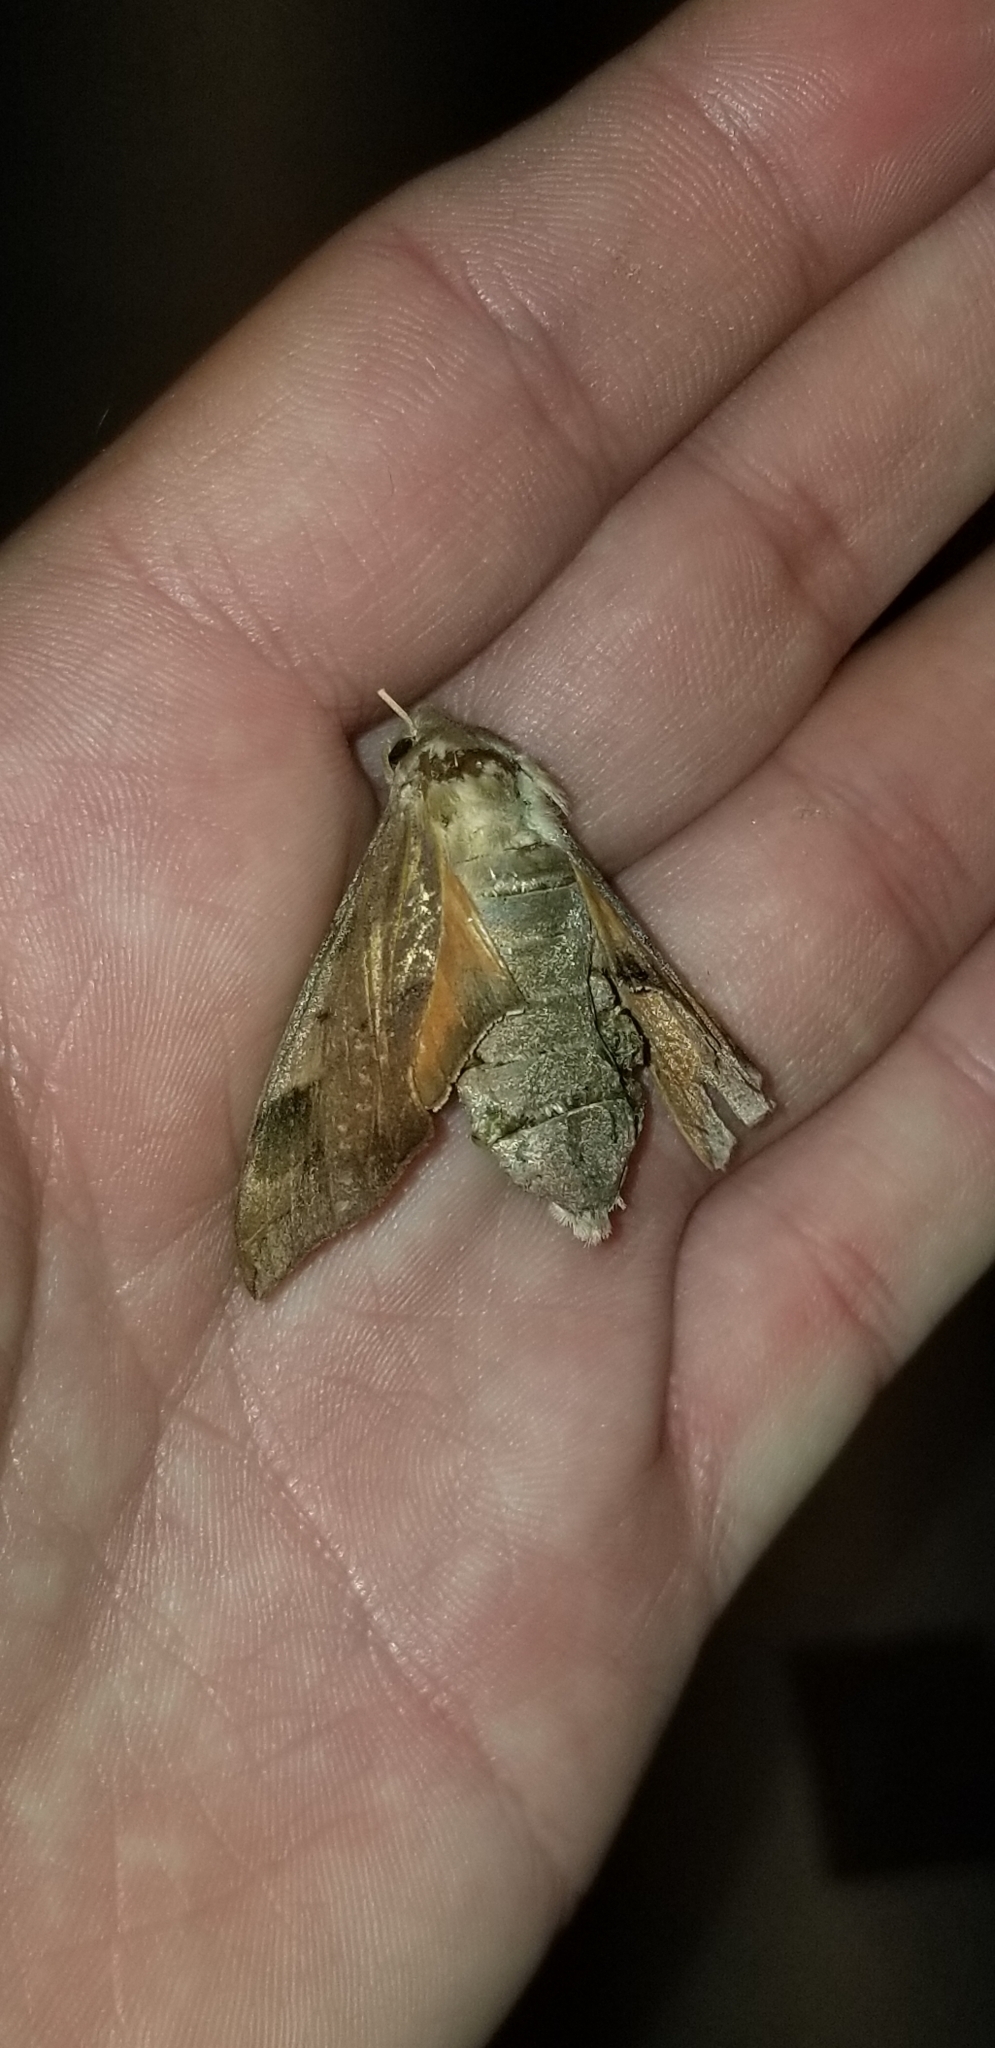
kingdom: Animalia
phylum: Arthropoda
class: Insecta
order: Lepidoptera
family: Sphingidae
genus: Darapsa
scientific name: Darapsa myron
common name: Hog sphinx
